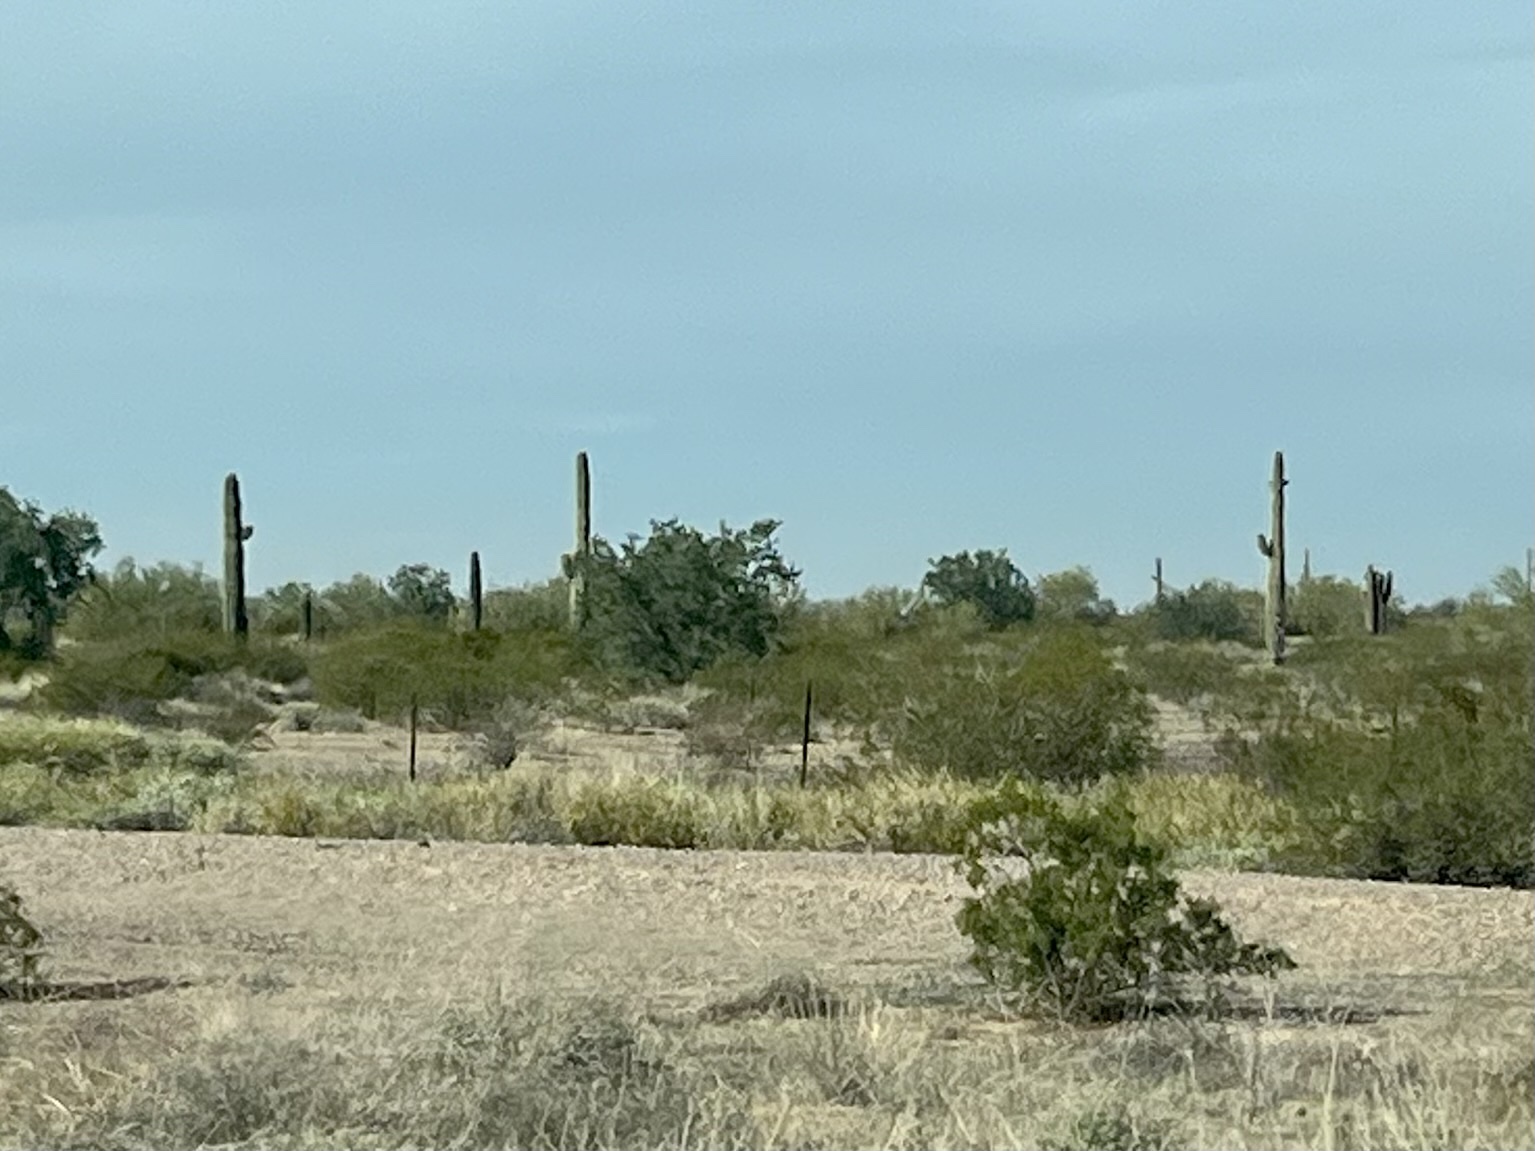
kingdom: Plantae
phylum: Tracheophyta
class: Magnoliopsida
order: Caryophyllales
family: Cactaceae
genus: Carnegiea
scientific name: Carnegiea gigantea
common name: Saguaro
